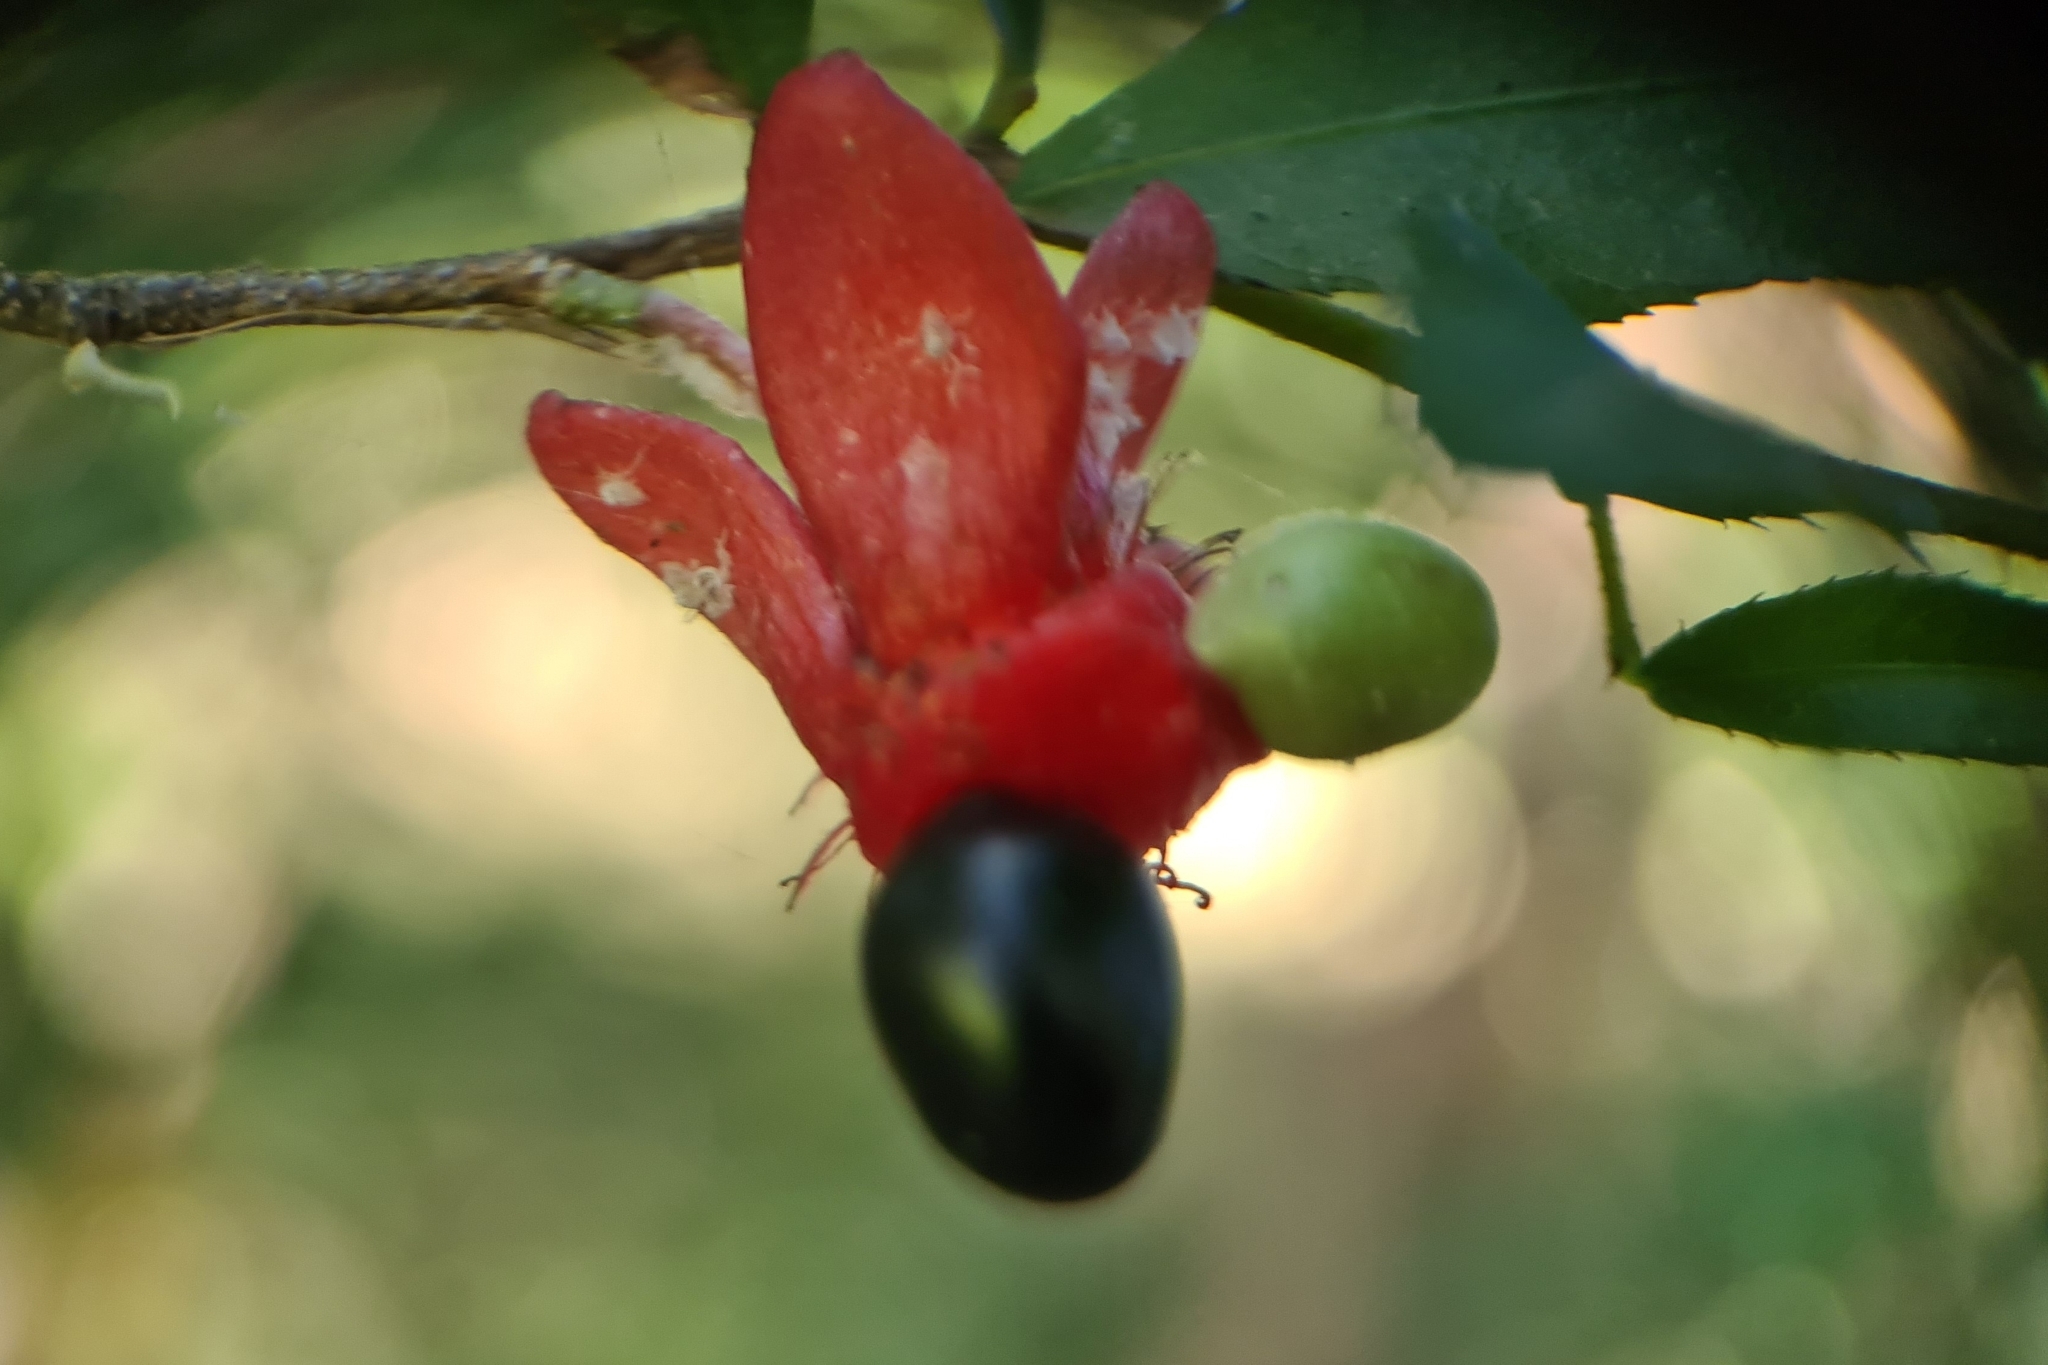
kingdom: Plantae
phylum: Tracheophyta
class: Magnoliopsida
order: Malpighiales
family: Ochnaceae
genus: Ochna
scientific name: Ochna serrulata
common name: Mickey mouse plant
